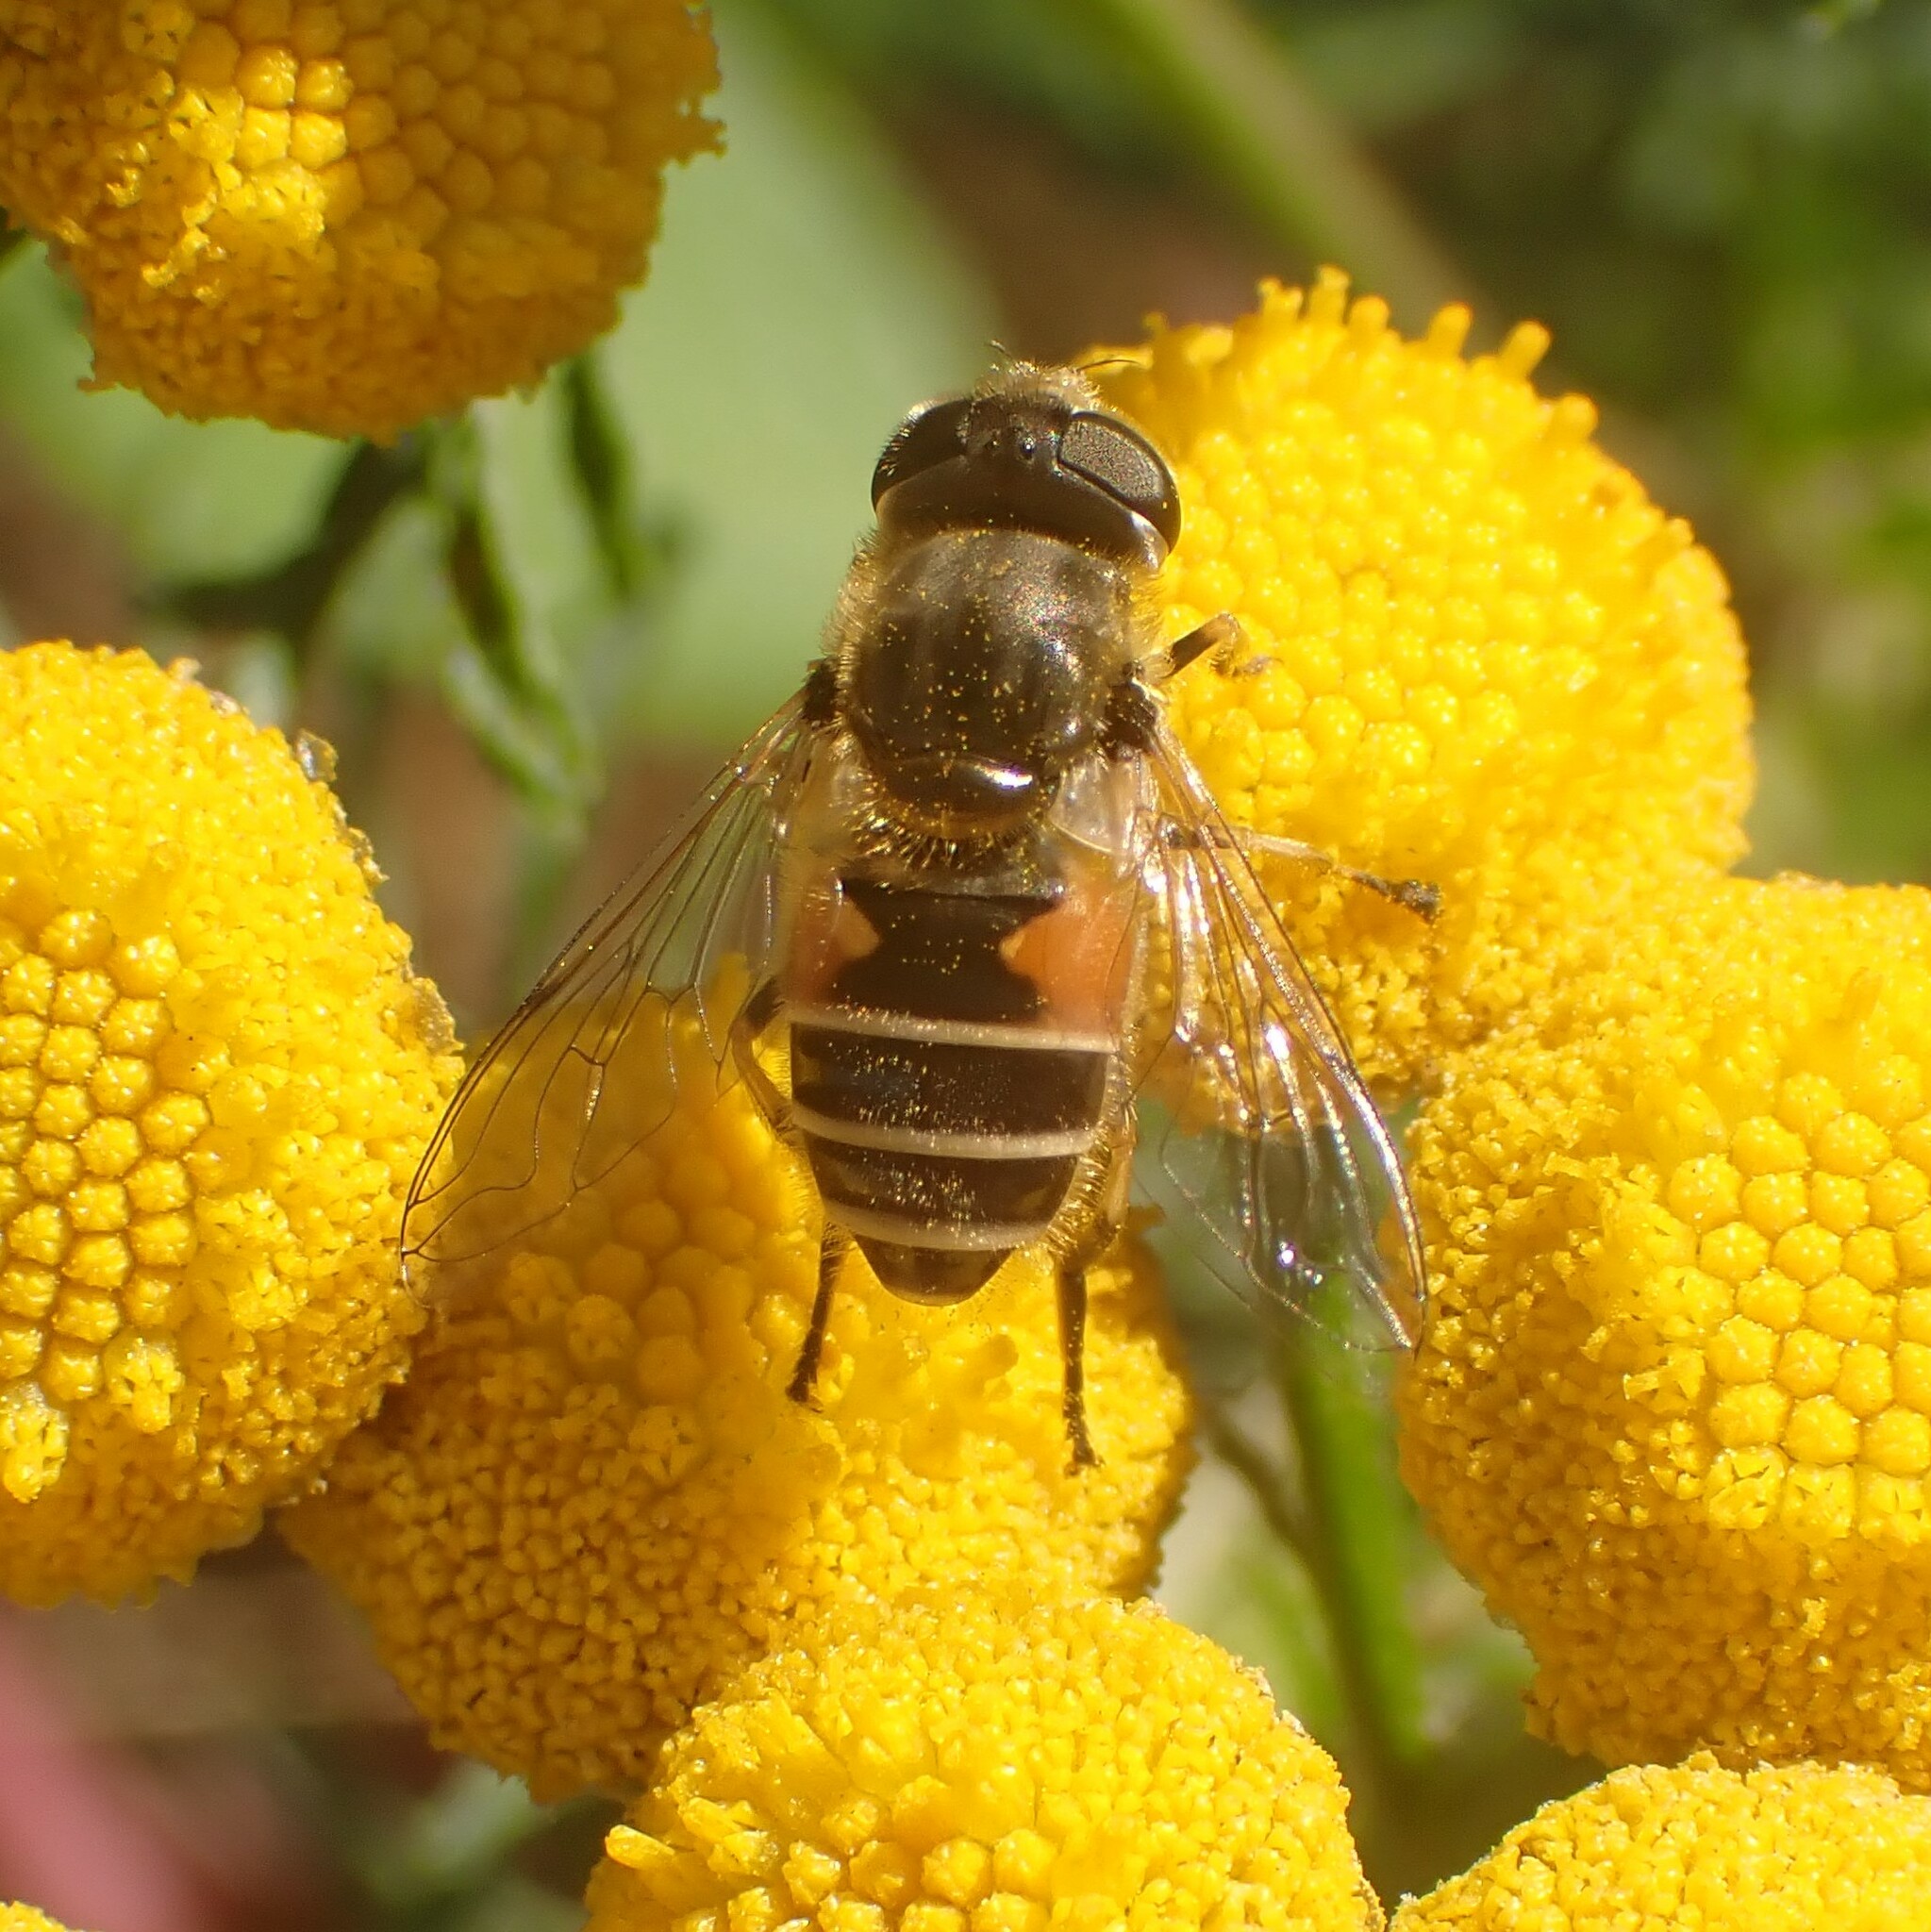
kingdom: Animalia
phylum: Arthropoda
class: Insecta
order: Diptera
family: Syrphidae
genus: Eristalis
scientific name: Eristalis arbustorum
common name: Hover fly
